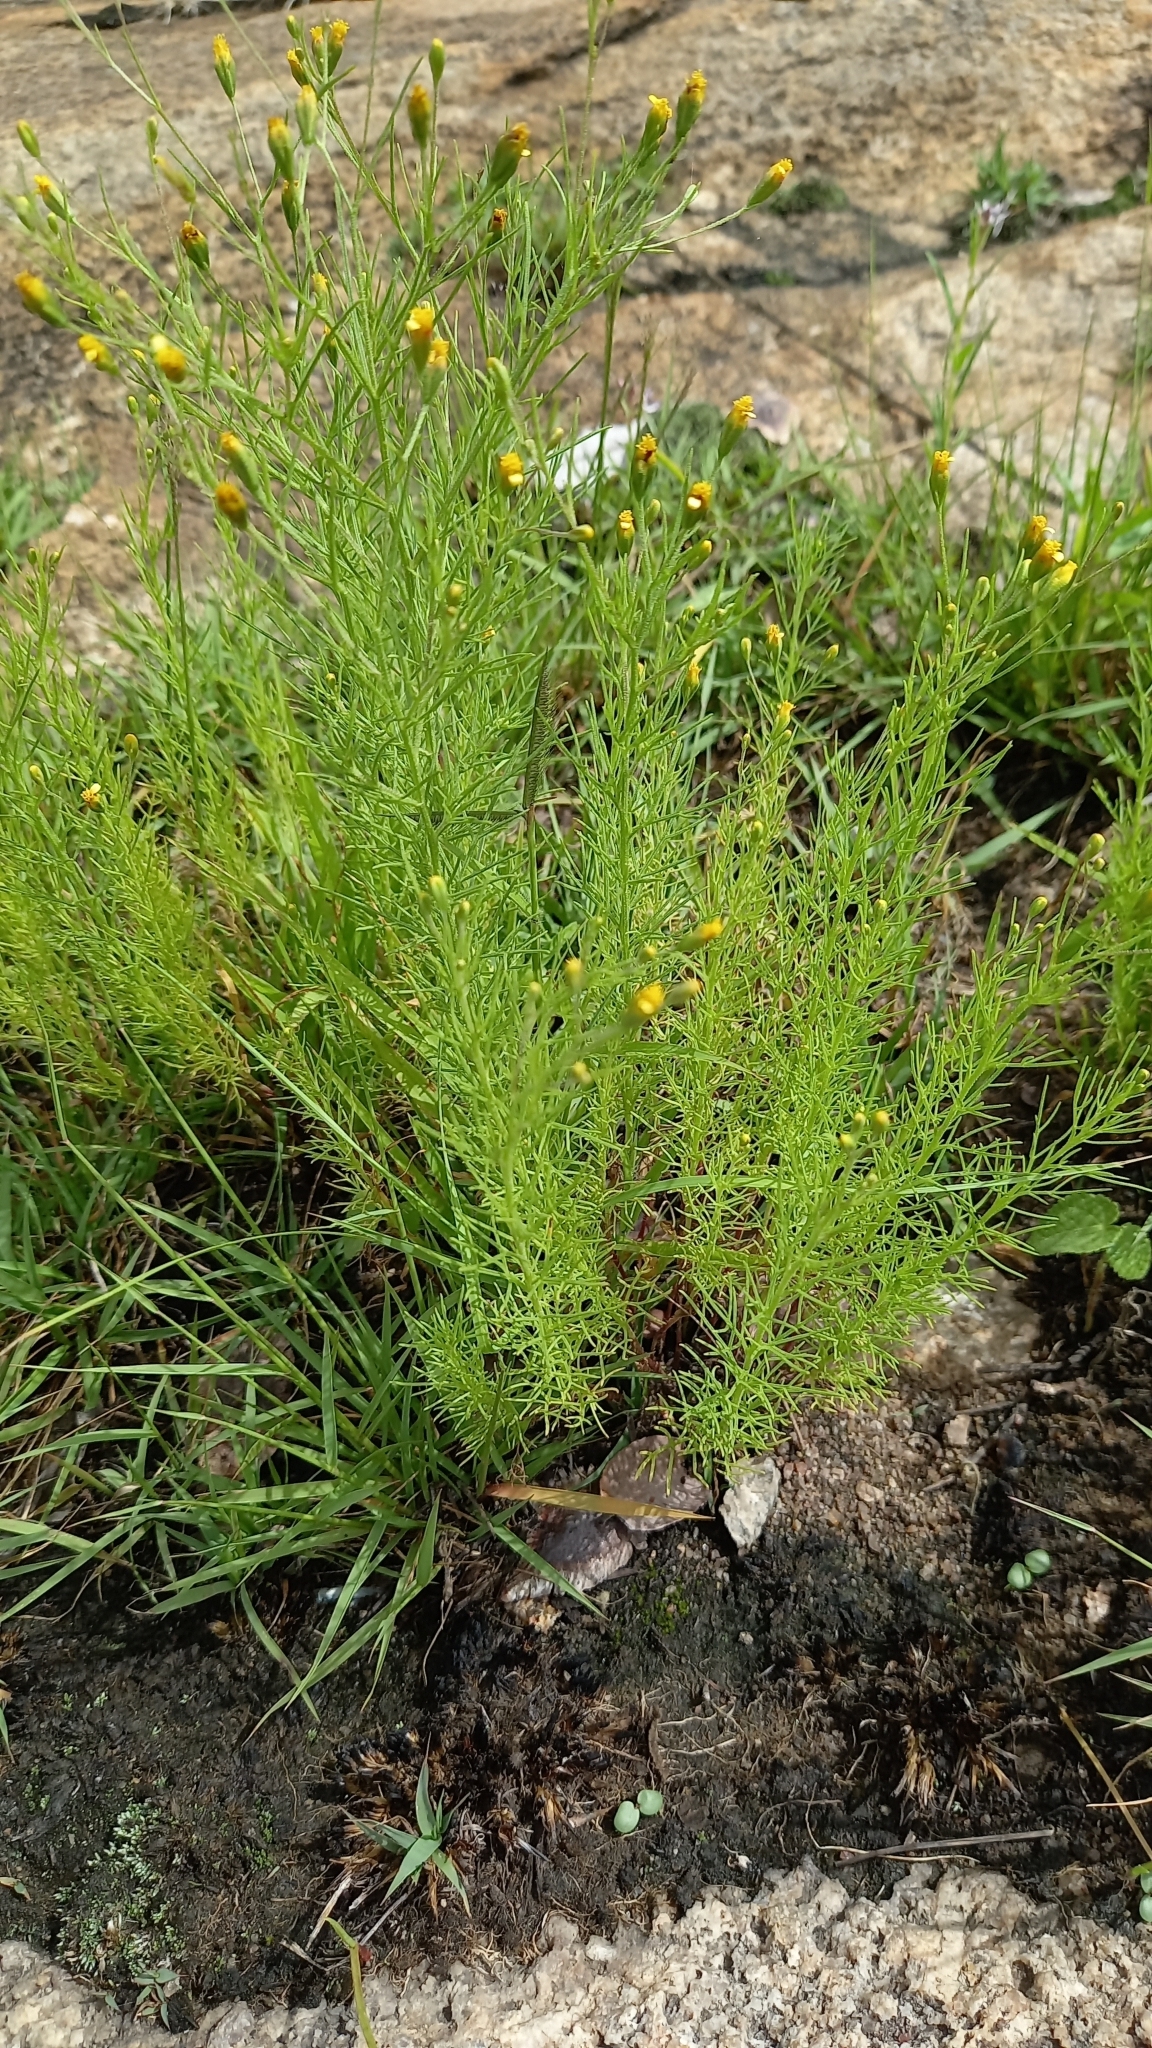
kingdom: Plantae
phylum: Tracheophyta
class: Magnoliopsida
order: Asterales
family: Asteraceae
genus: Schkuhria
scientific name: Schkuhria pinnata
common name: Dwarf marigold
